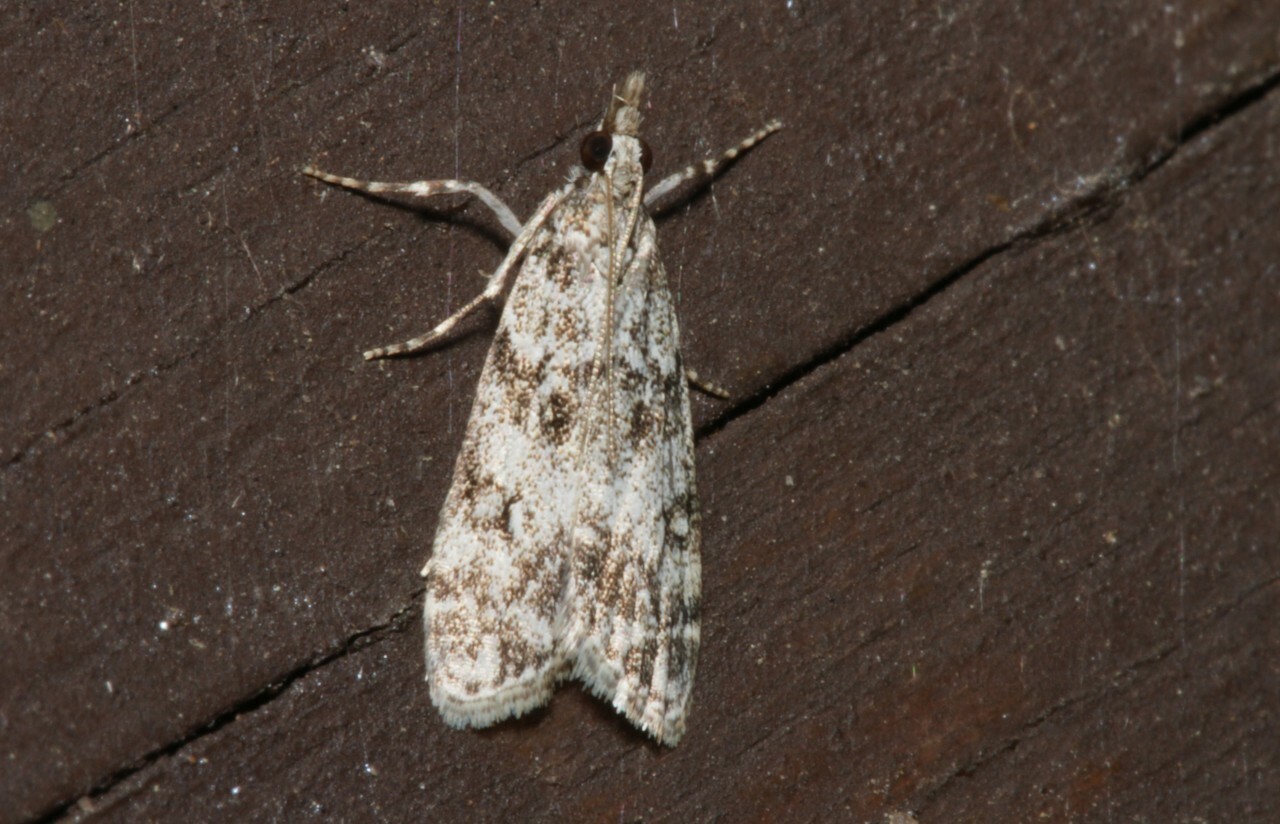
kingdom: Animalia
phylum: Arthropoda
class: Insecta
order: Lepidoptera
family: Crambidae
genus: Eudonia
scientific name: Eudonia lacustrata
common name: Little grey
